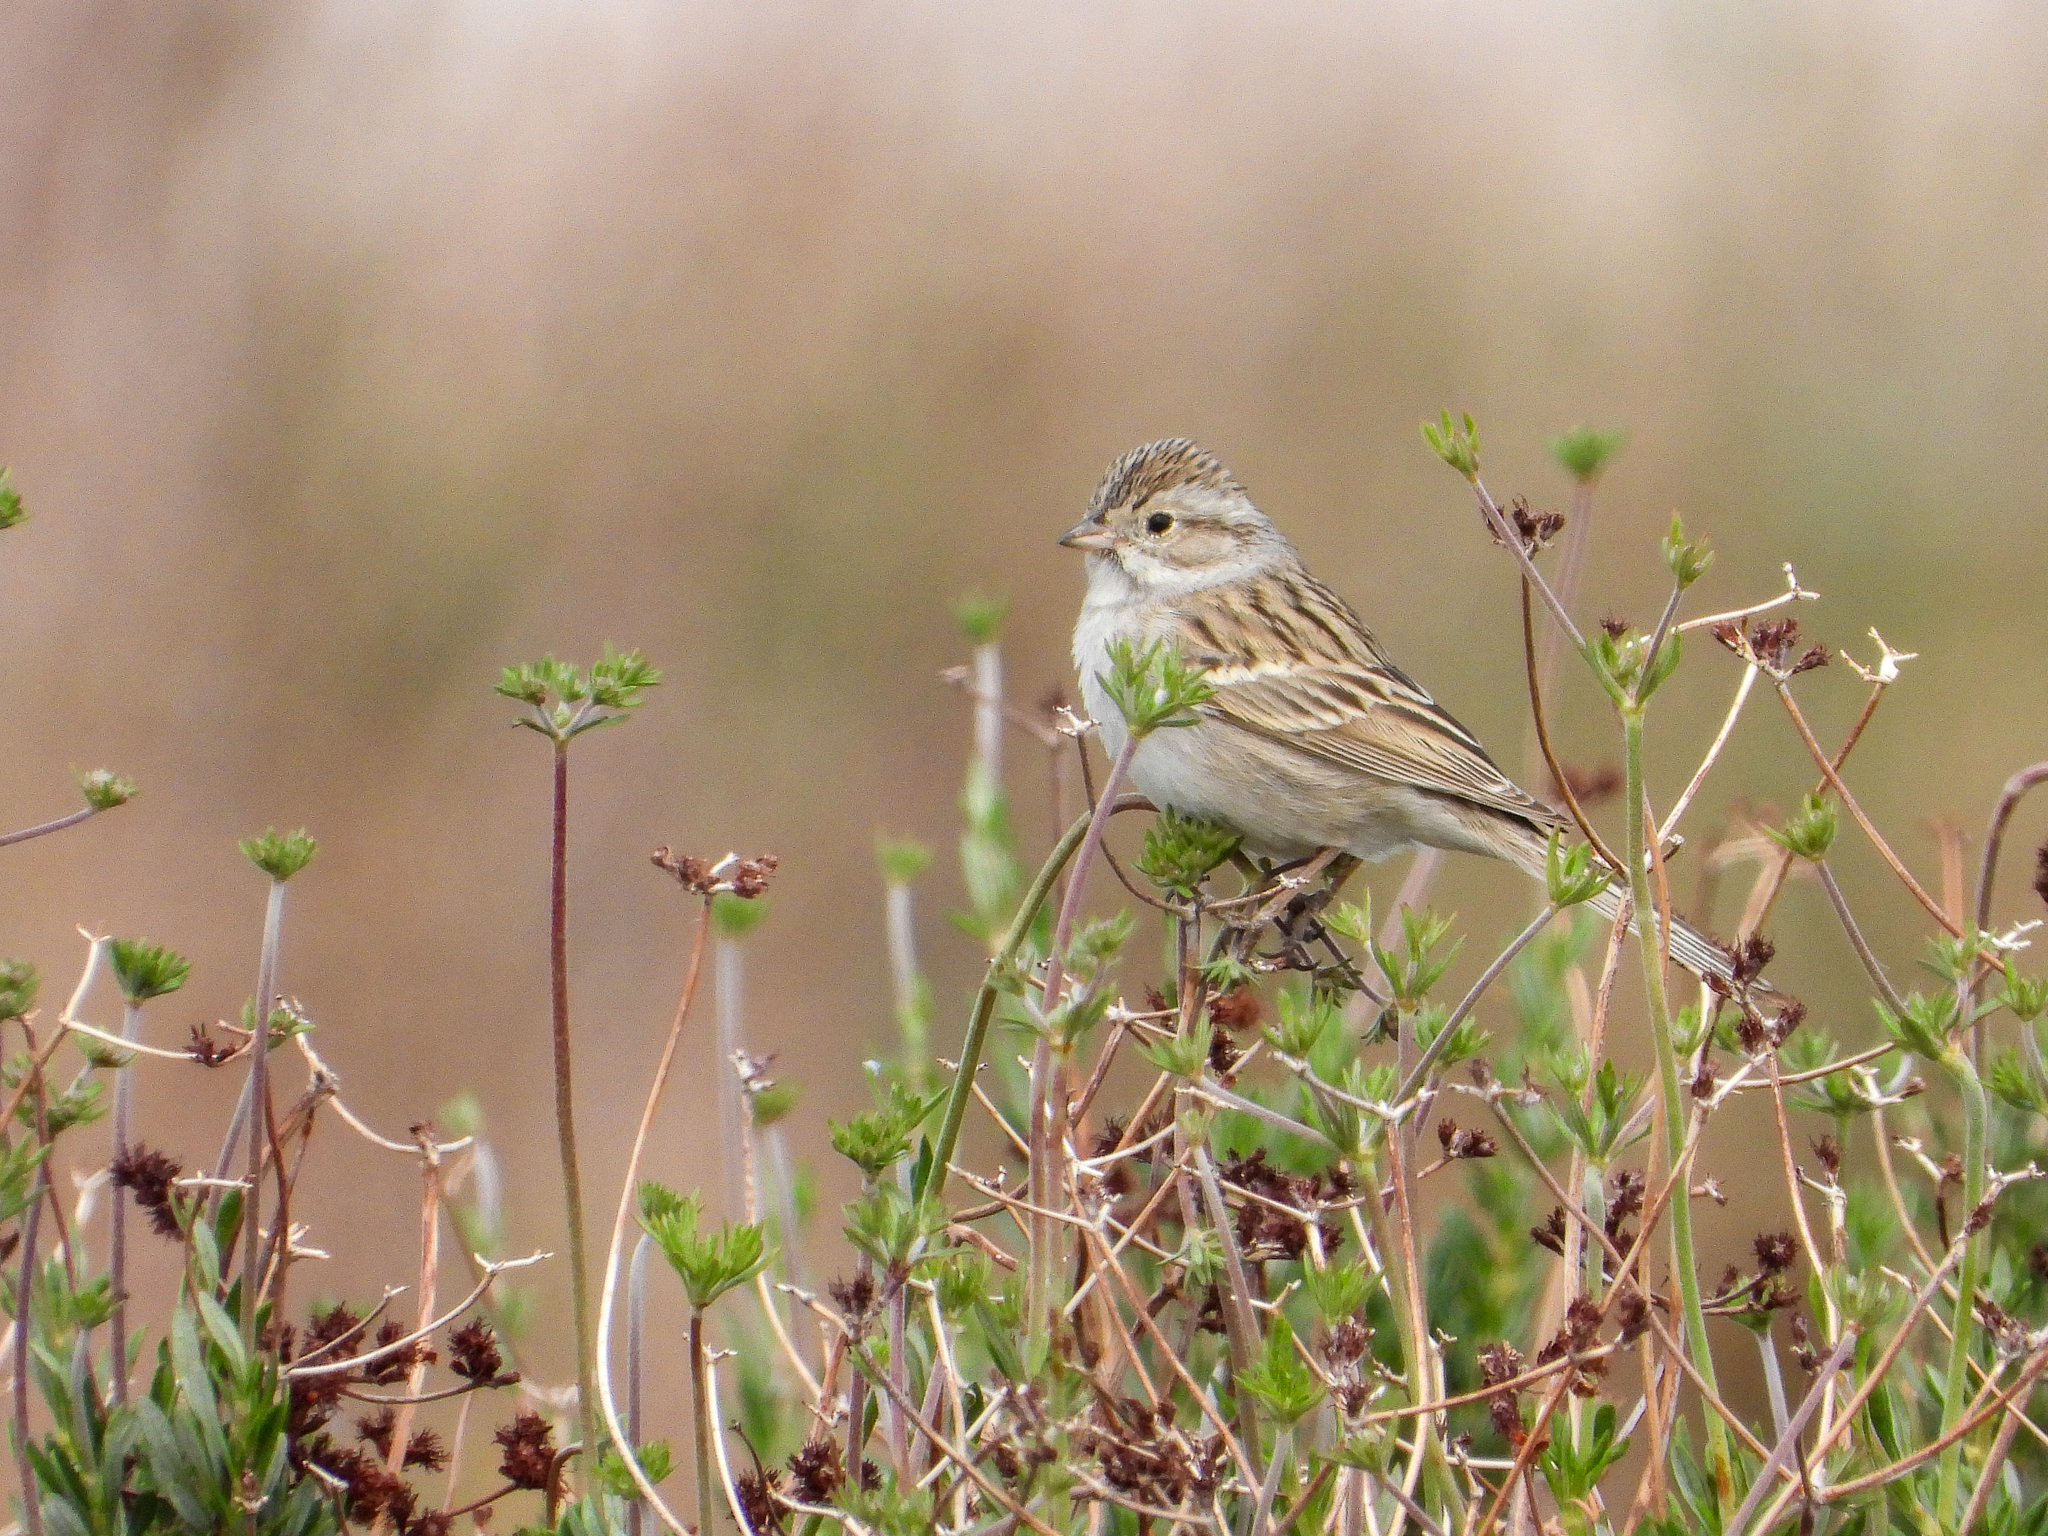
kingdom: Animalia
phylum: Chordata
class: Aves
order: Passeriformes
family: Passerellidae
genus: Spizella
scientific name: Spizella breweri
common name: Brewer's sparrow
